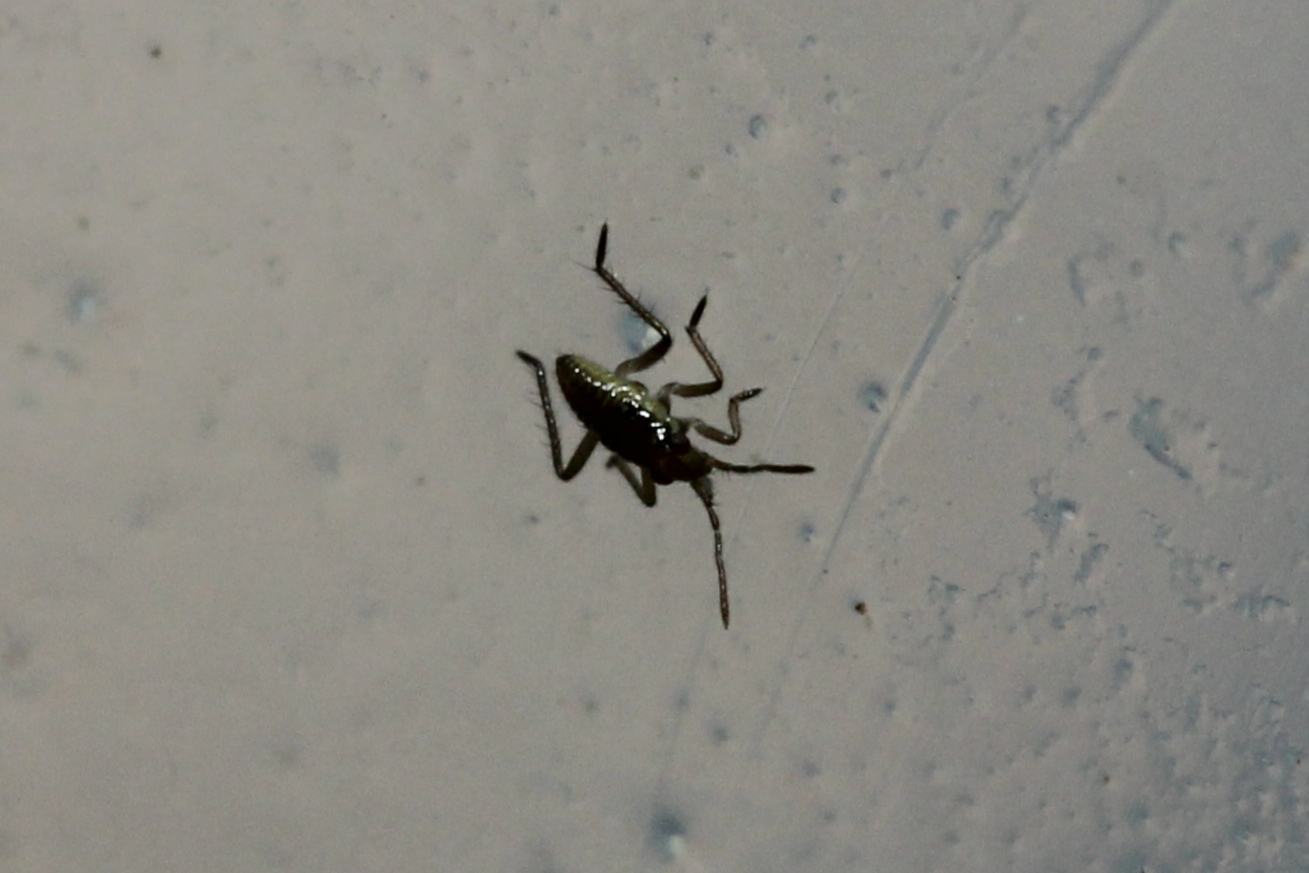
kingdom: Animalia
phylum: Arthropoda
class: Insecta
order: Hemiptera
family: Mesoveliidae
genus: Mesovelia
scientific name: Mesovelia
